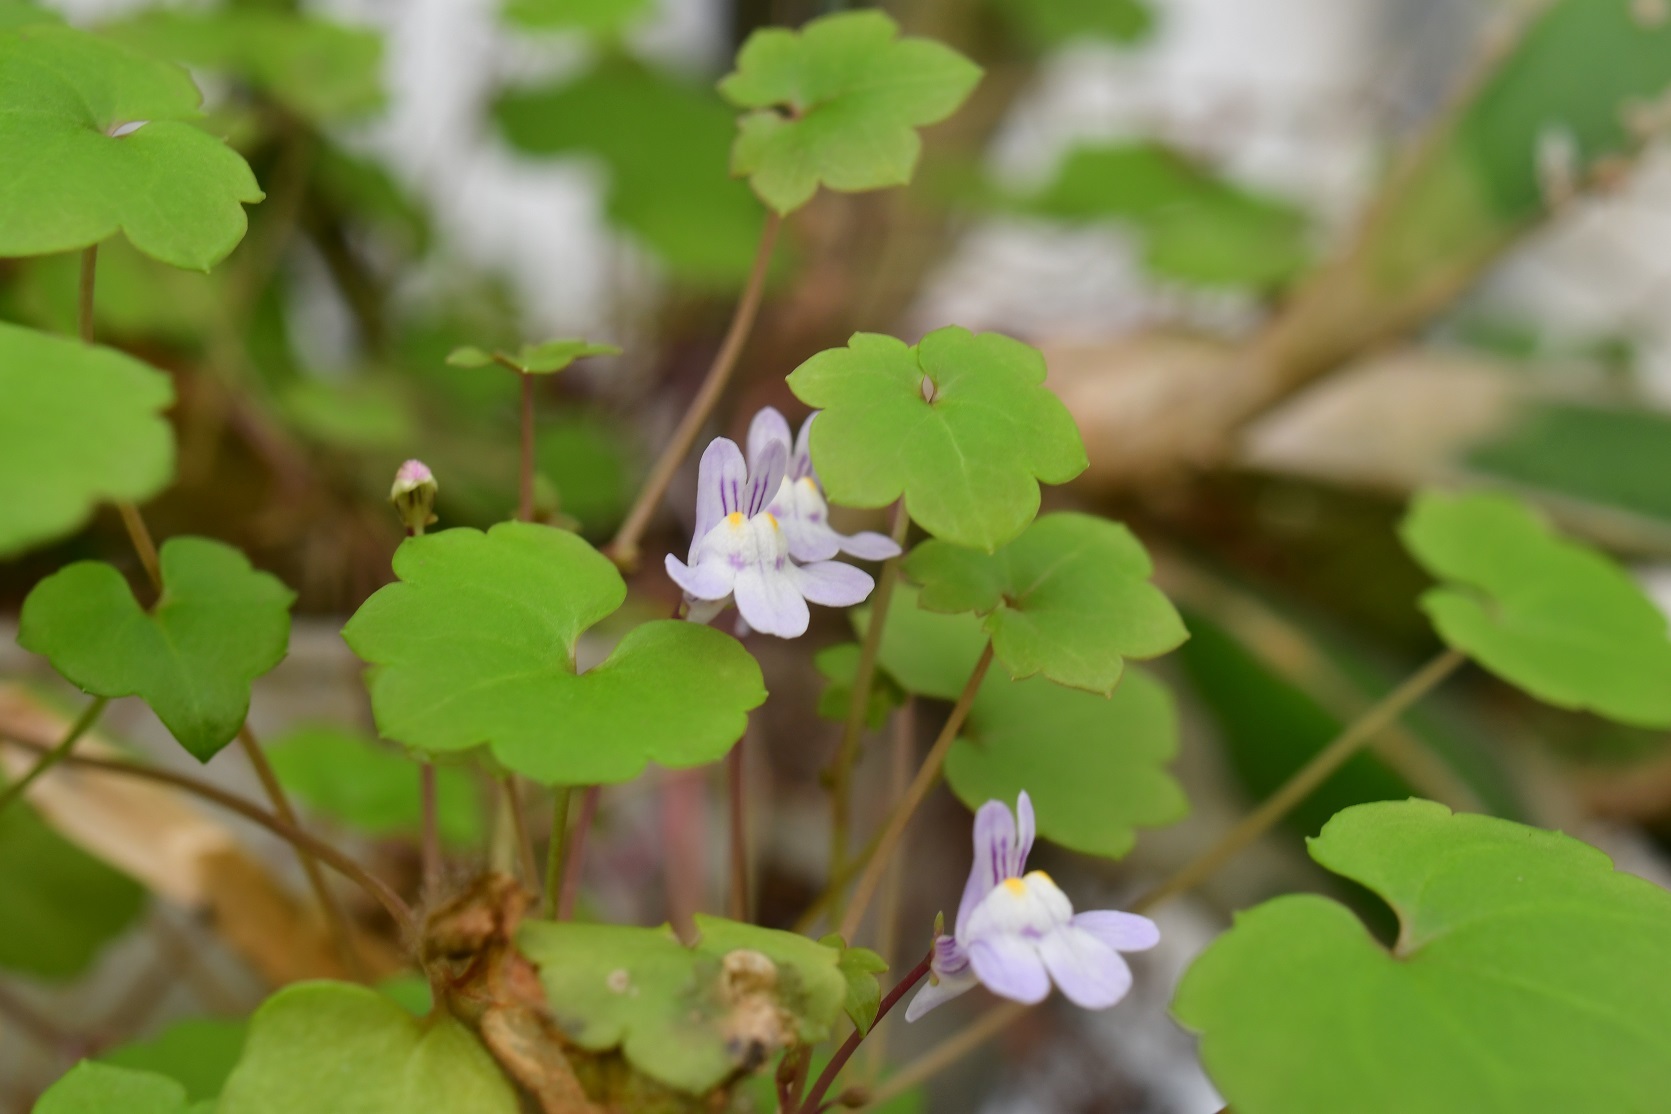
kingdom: Plantae
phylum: Tracheophyta
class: Magnoliopsida
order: Lamiales
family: Plantaginaceae
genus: Cymbalaria
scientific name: Cymbalaria muralis
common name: Ivy-leaved toadflax
